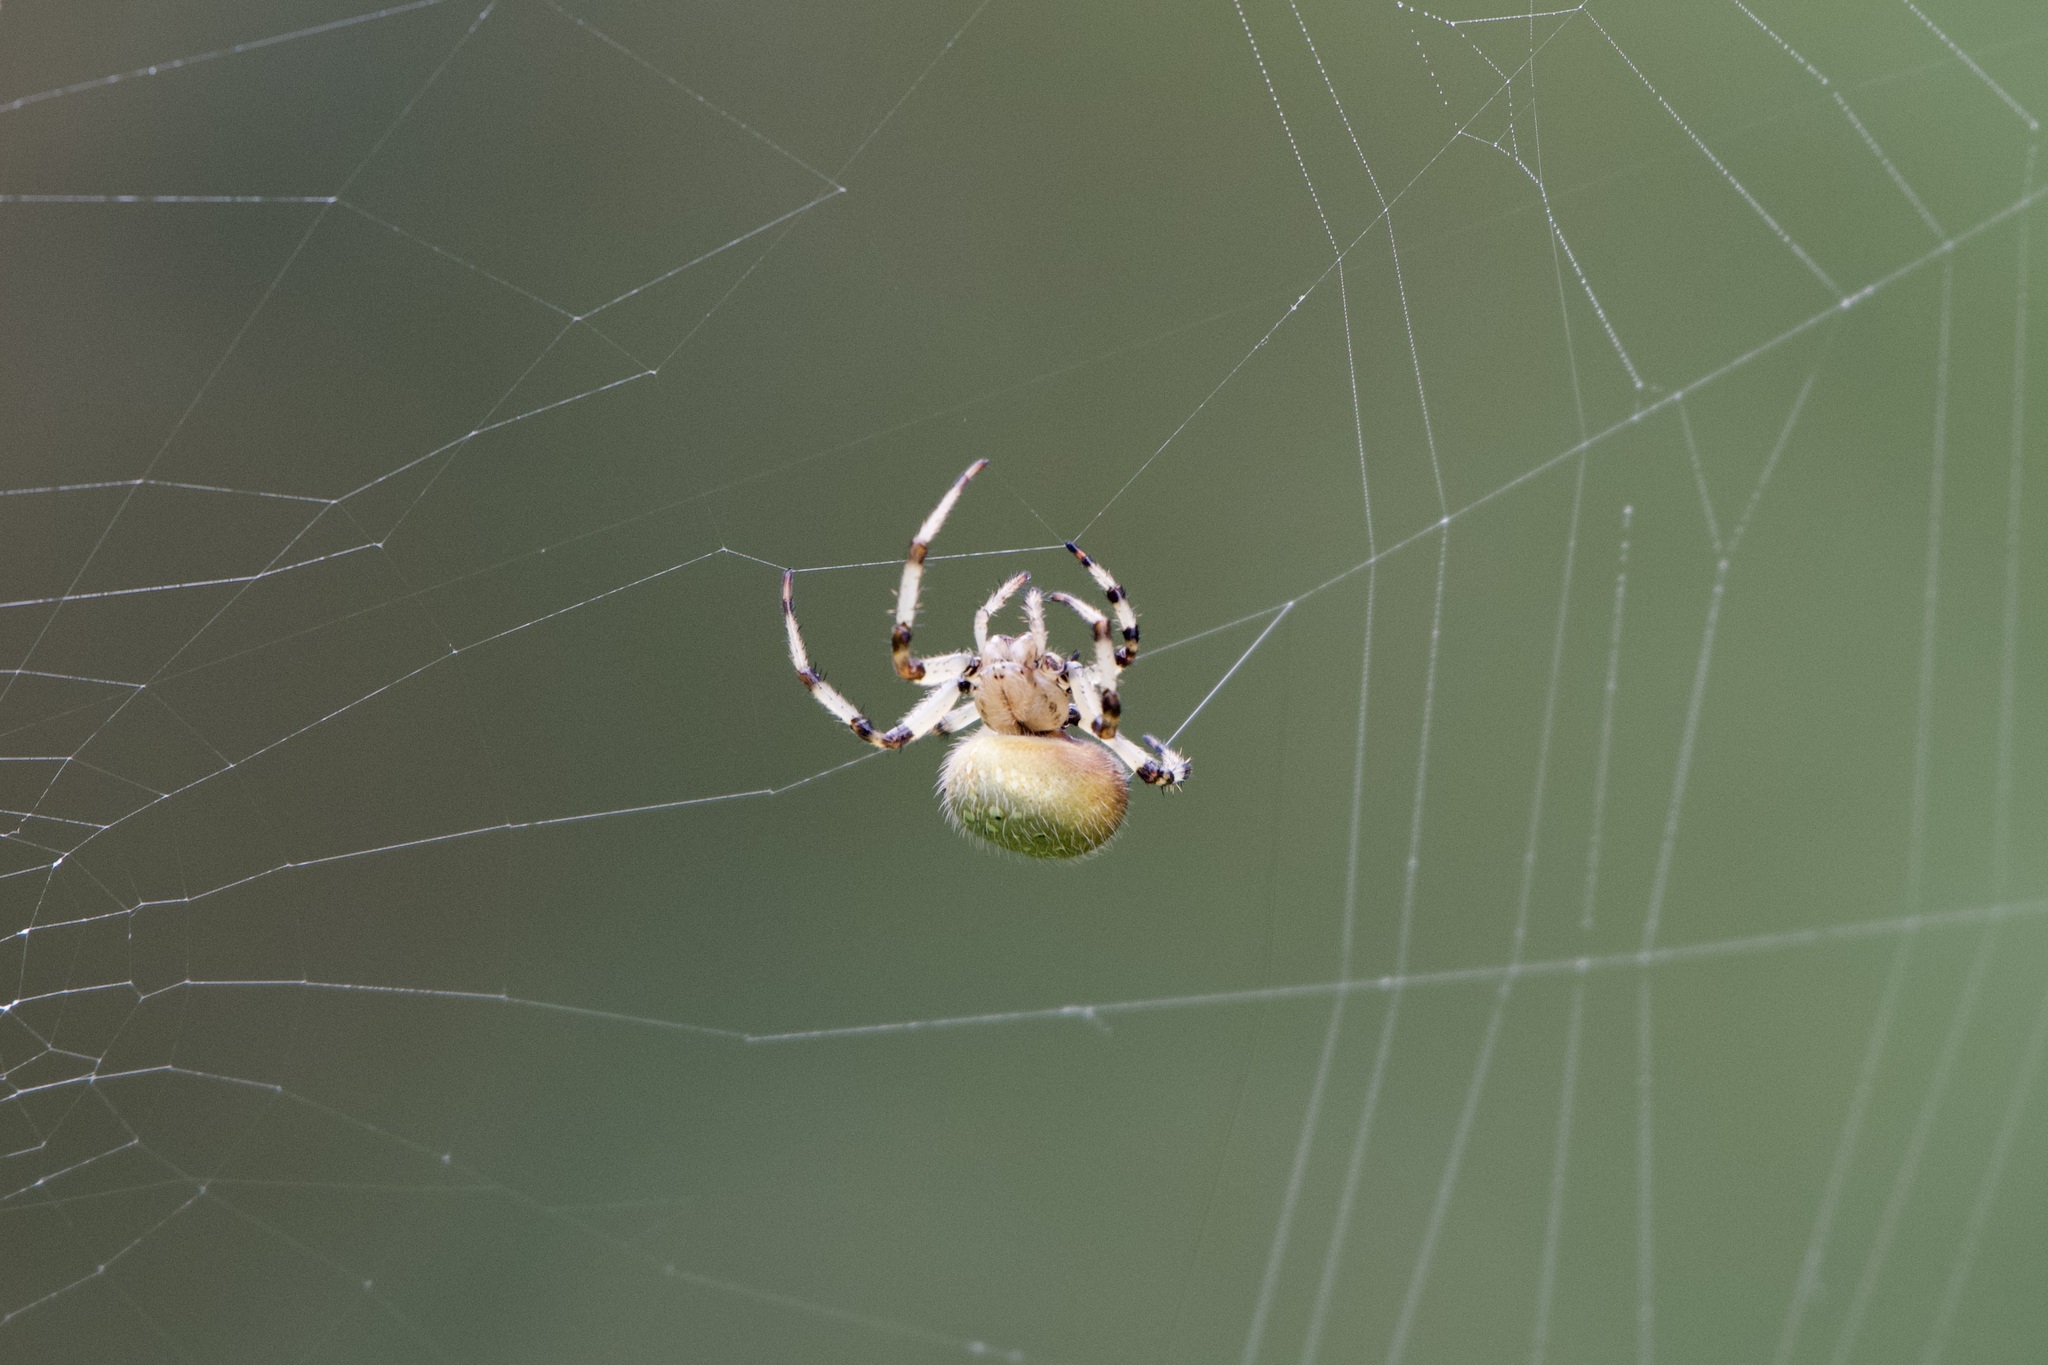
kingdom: Animalia
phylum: Arthropoda
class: Arachnida
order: Araneae
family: Araneidae
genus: Araneus
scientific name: Araneus trifolium
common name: Shamrock orbweaver
